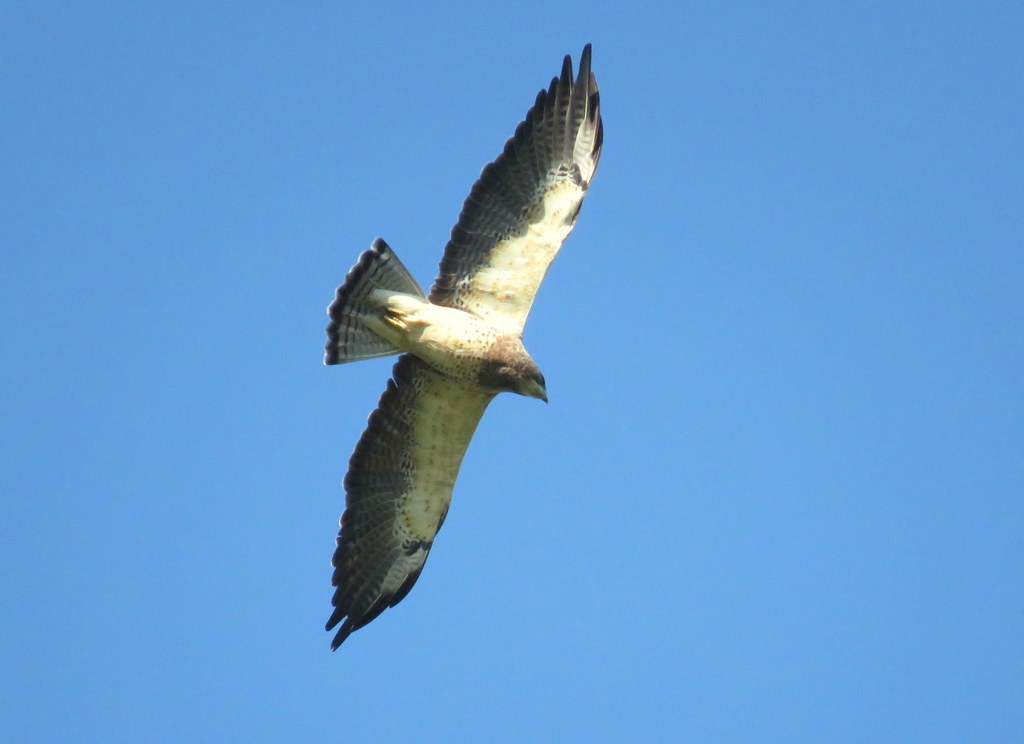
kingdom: Animalia
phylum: Chordata
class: Aves
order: Accipitriformes
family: Accipitridae
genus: Buteo
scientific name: Buteo swainsoni
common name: Swainson's hawk
